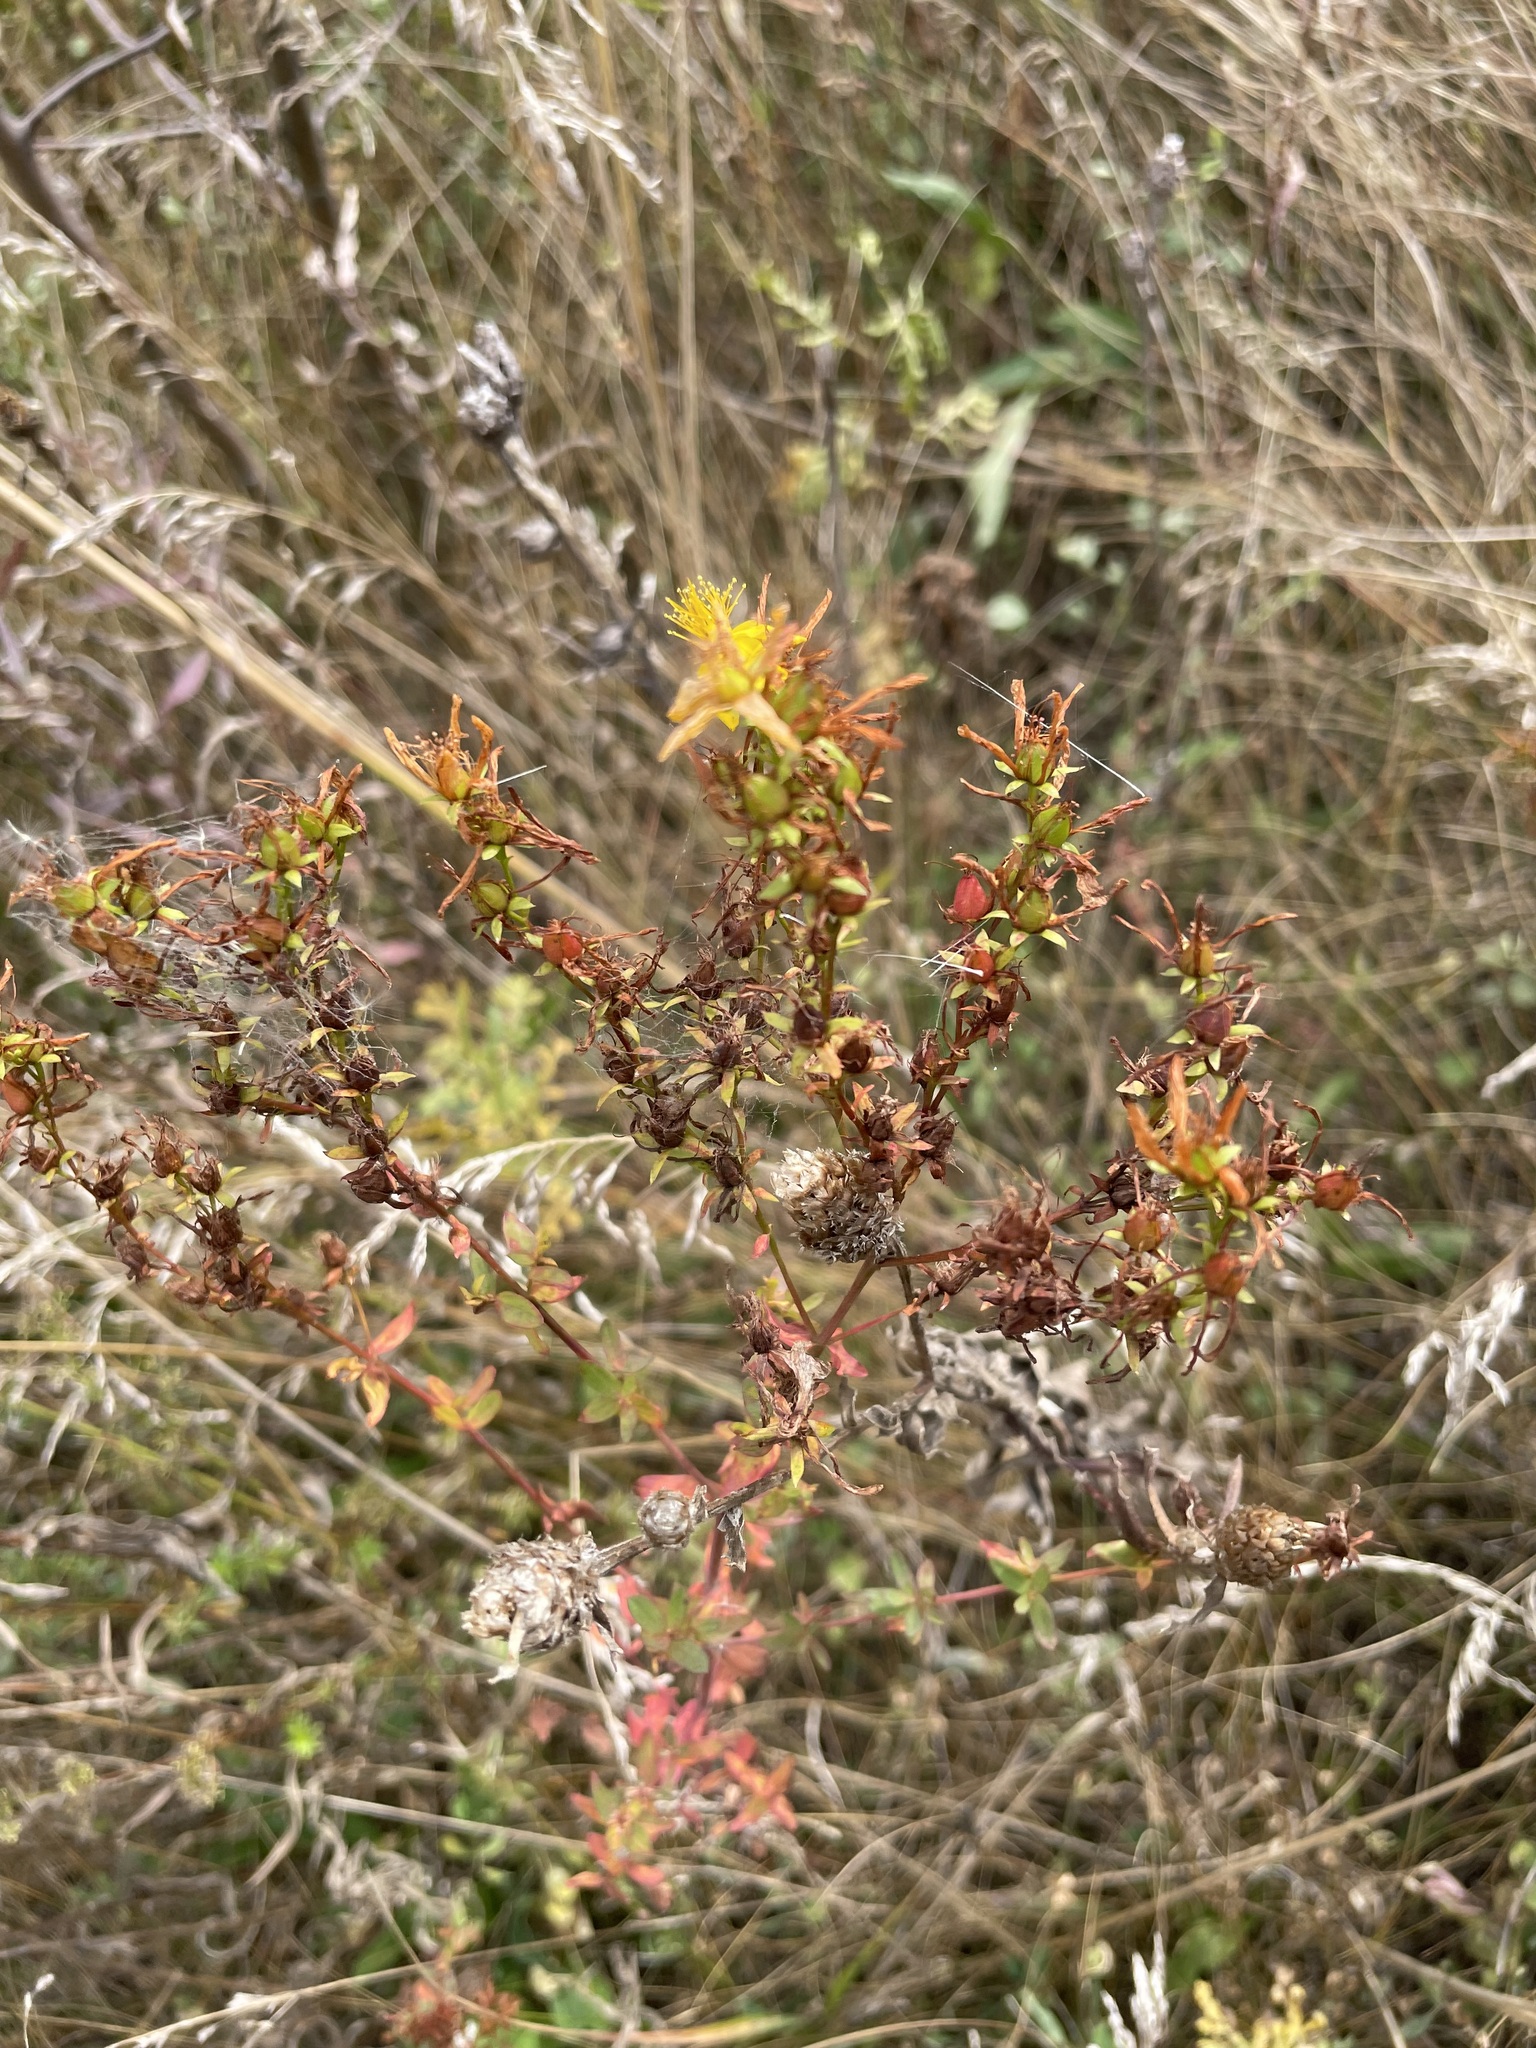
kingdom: Plantae
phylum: Tracheophyta
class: Magnoliopsida
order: Malpighiales
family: Hypericaceae
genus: Hypericum
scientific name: Hypericum perforatum
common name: Common st. johnswort
